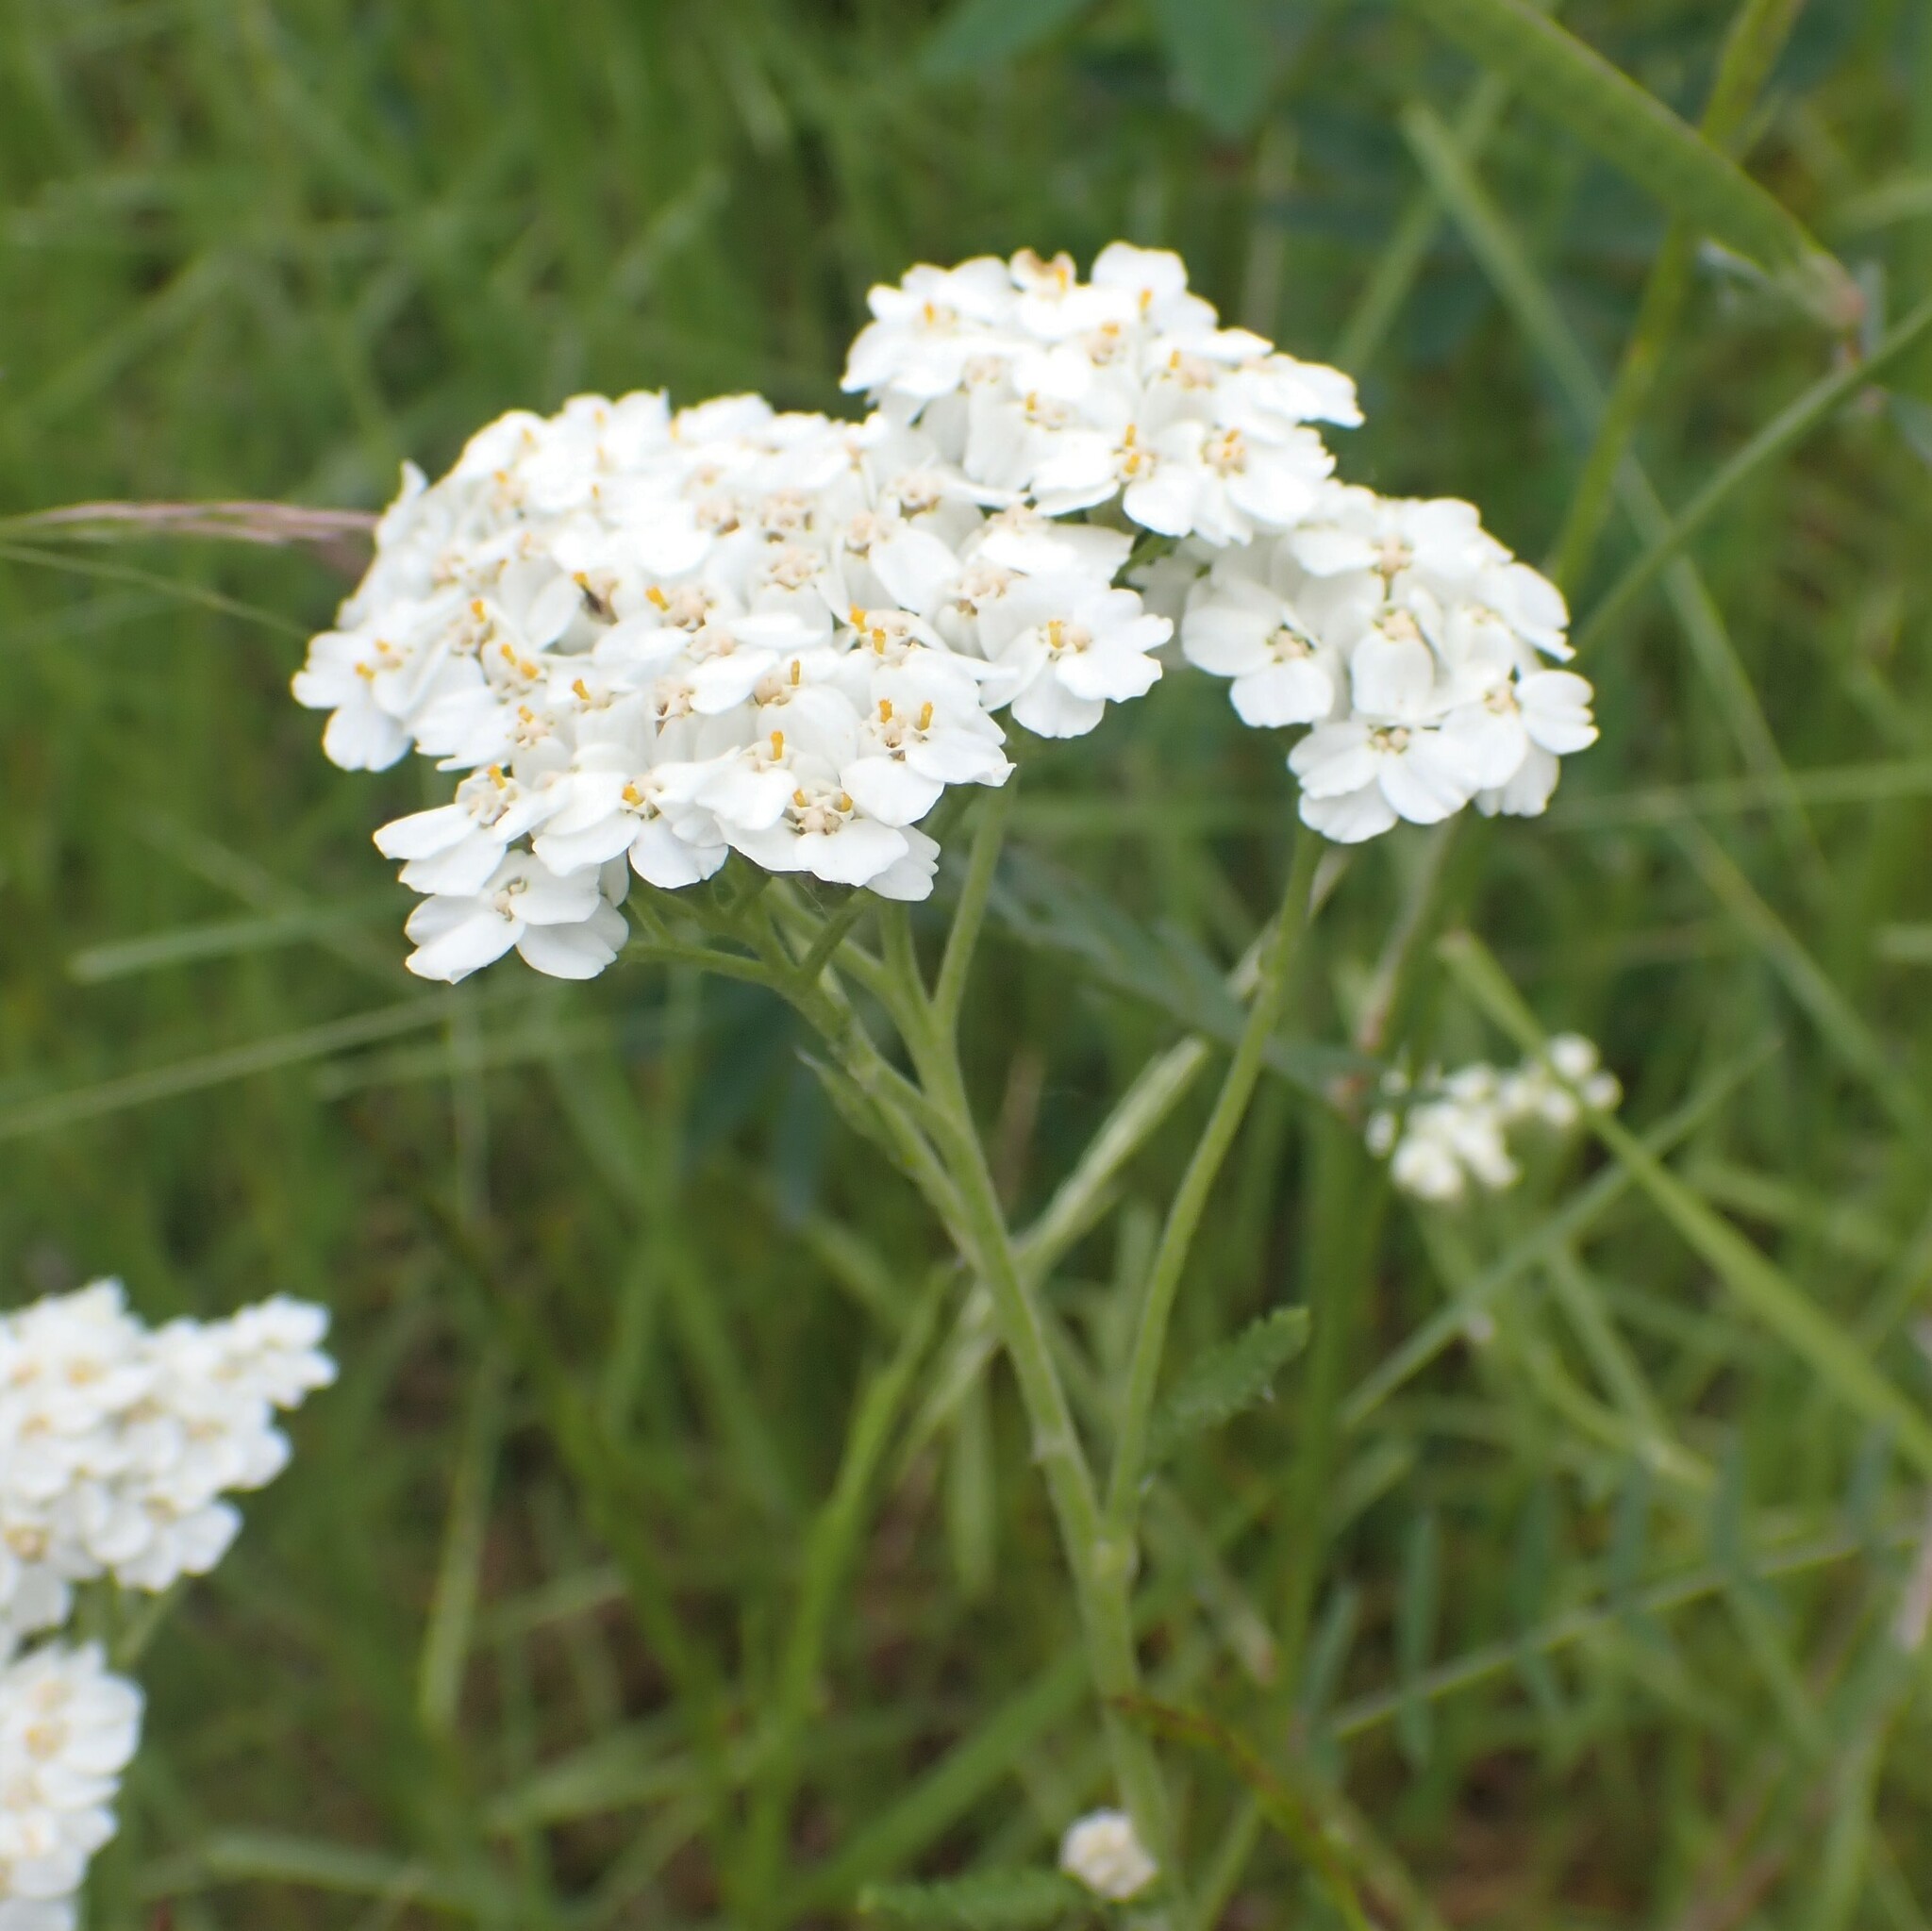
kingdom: Plantae
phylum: Tracheophyta
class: Magnoliopsida
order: Asterales
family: Asteraceae
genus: Achillea
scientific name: Achillea millefolium
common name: Yarrow
